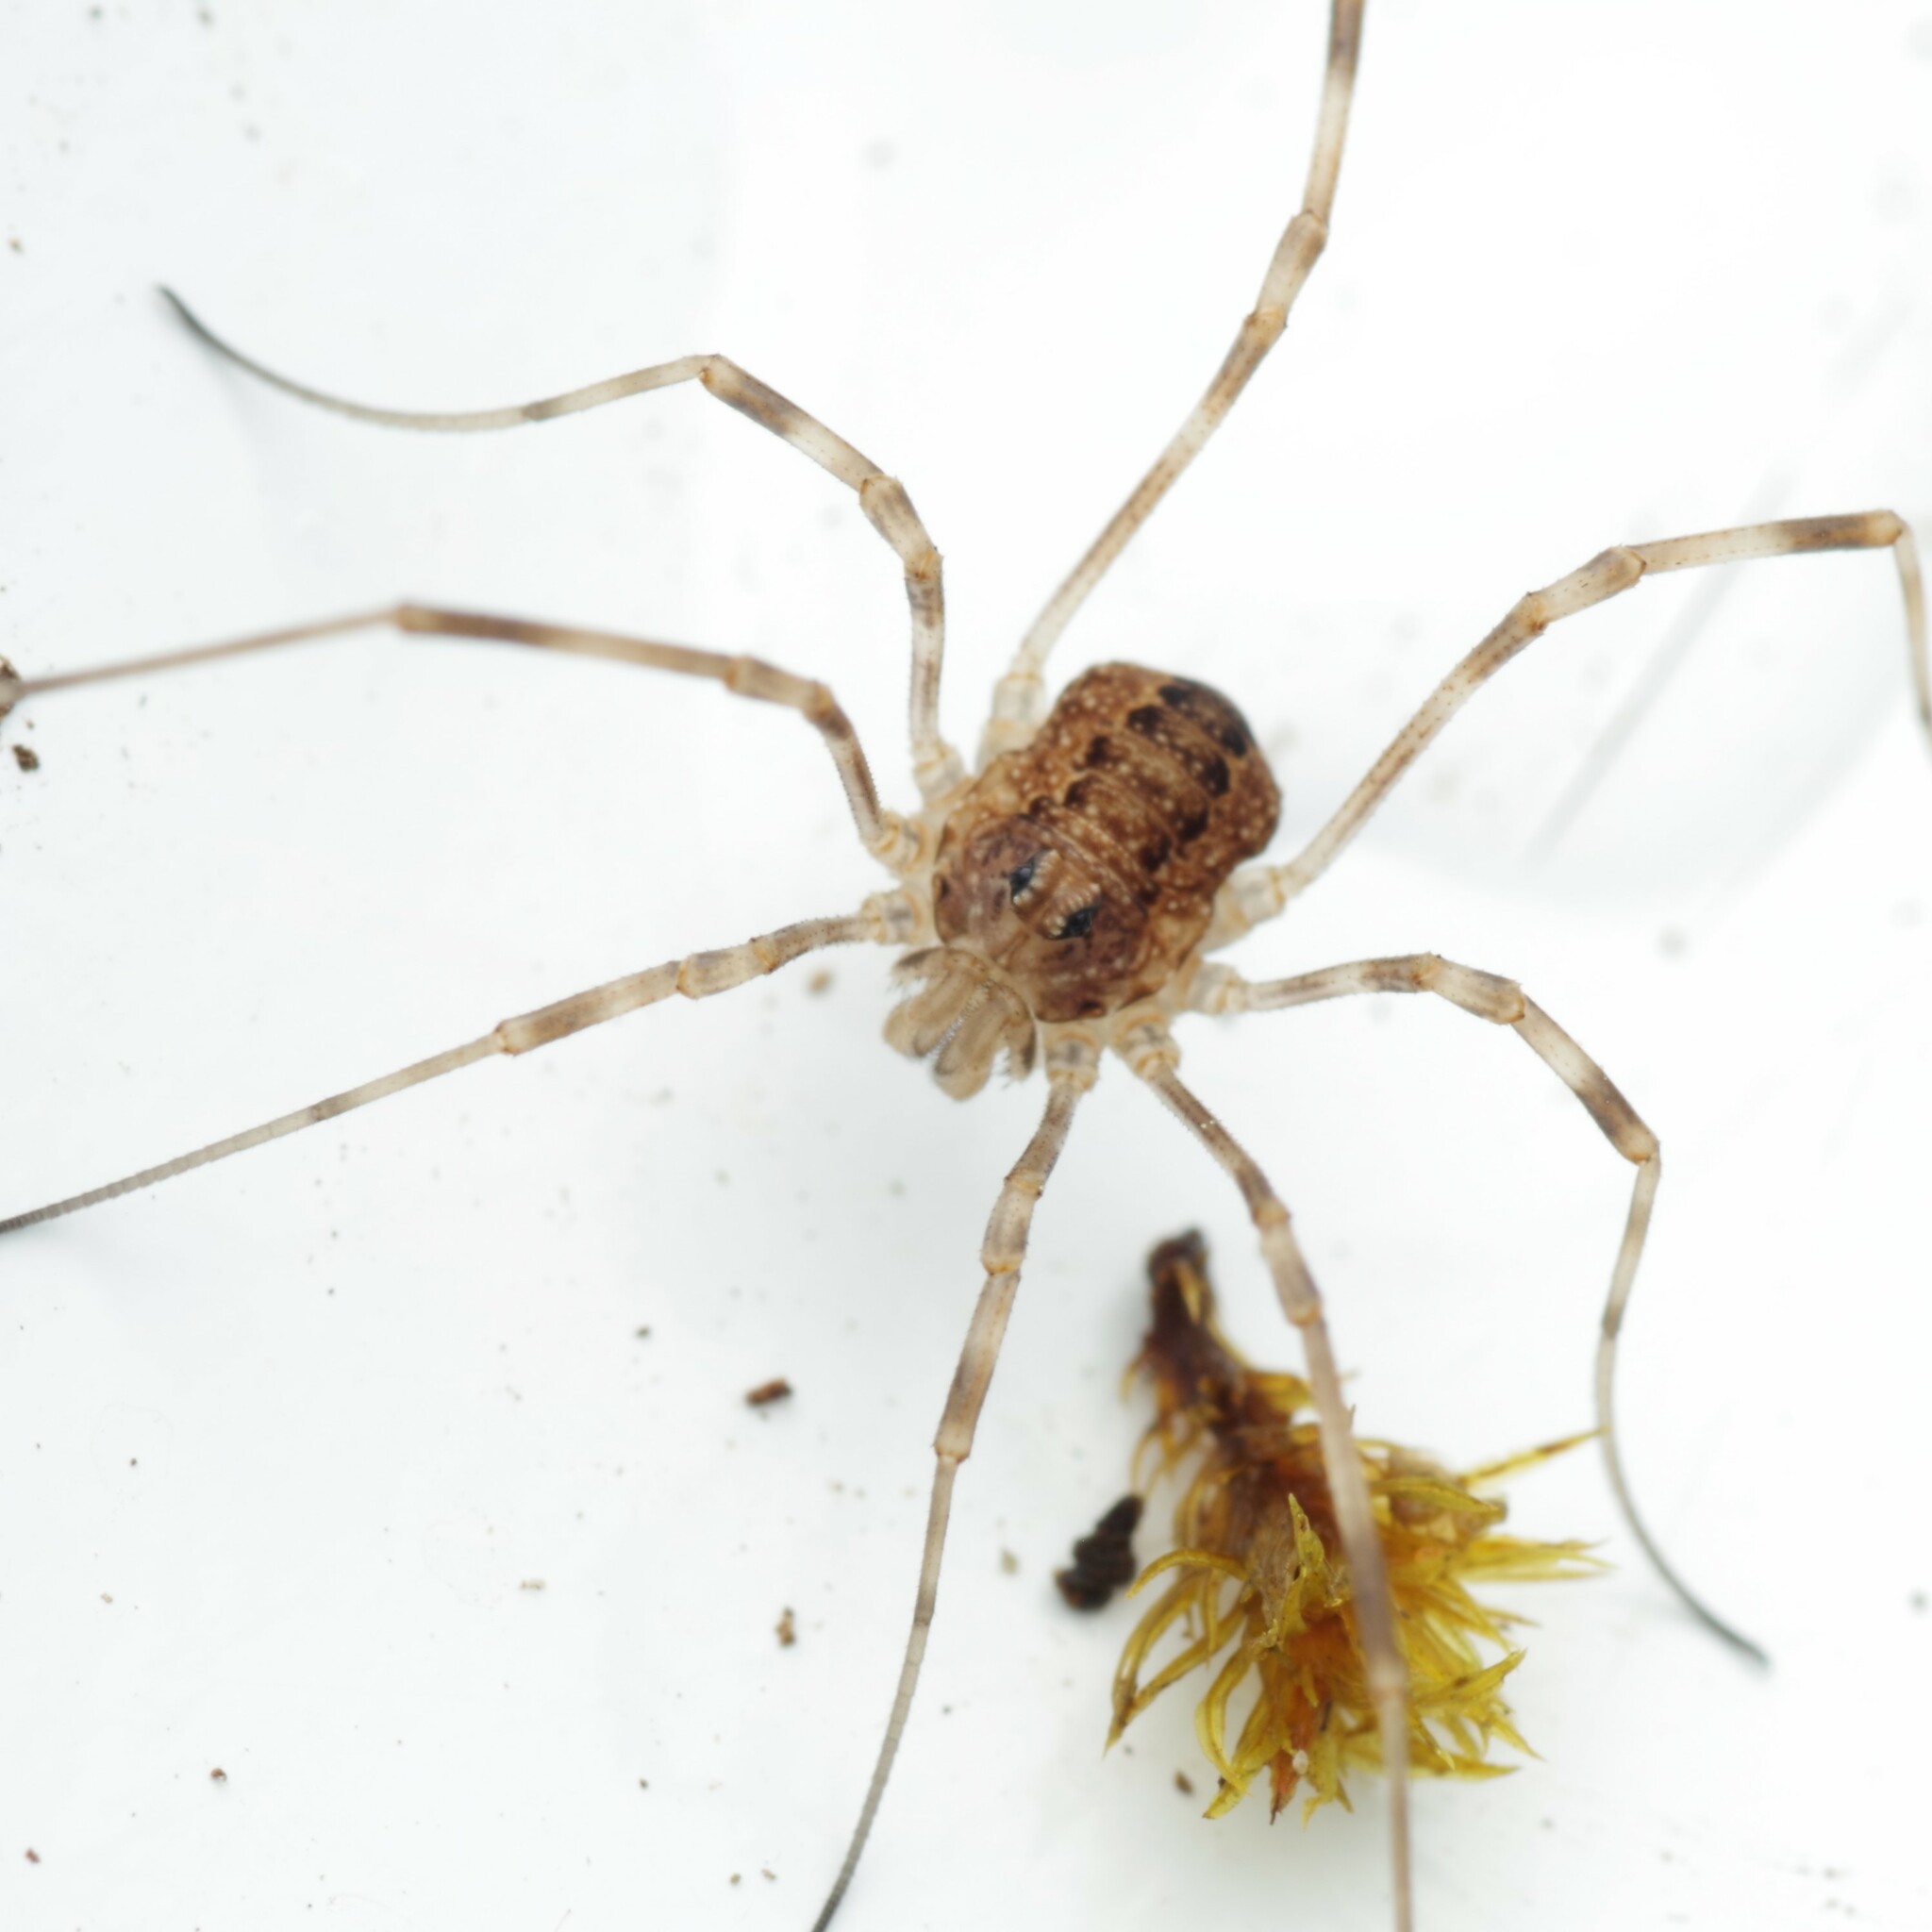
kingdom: Animalia
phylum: Arthropoda
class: Arachnida
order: Opiliones
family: Phalangiidae
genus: Rilaena
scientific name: Rilaena triangularis
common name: Spring harvestman
